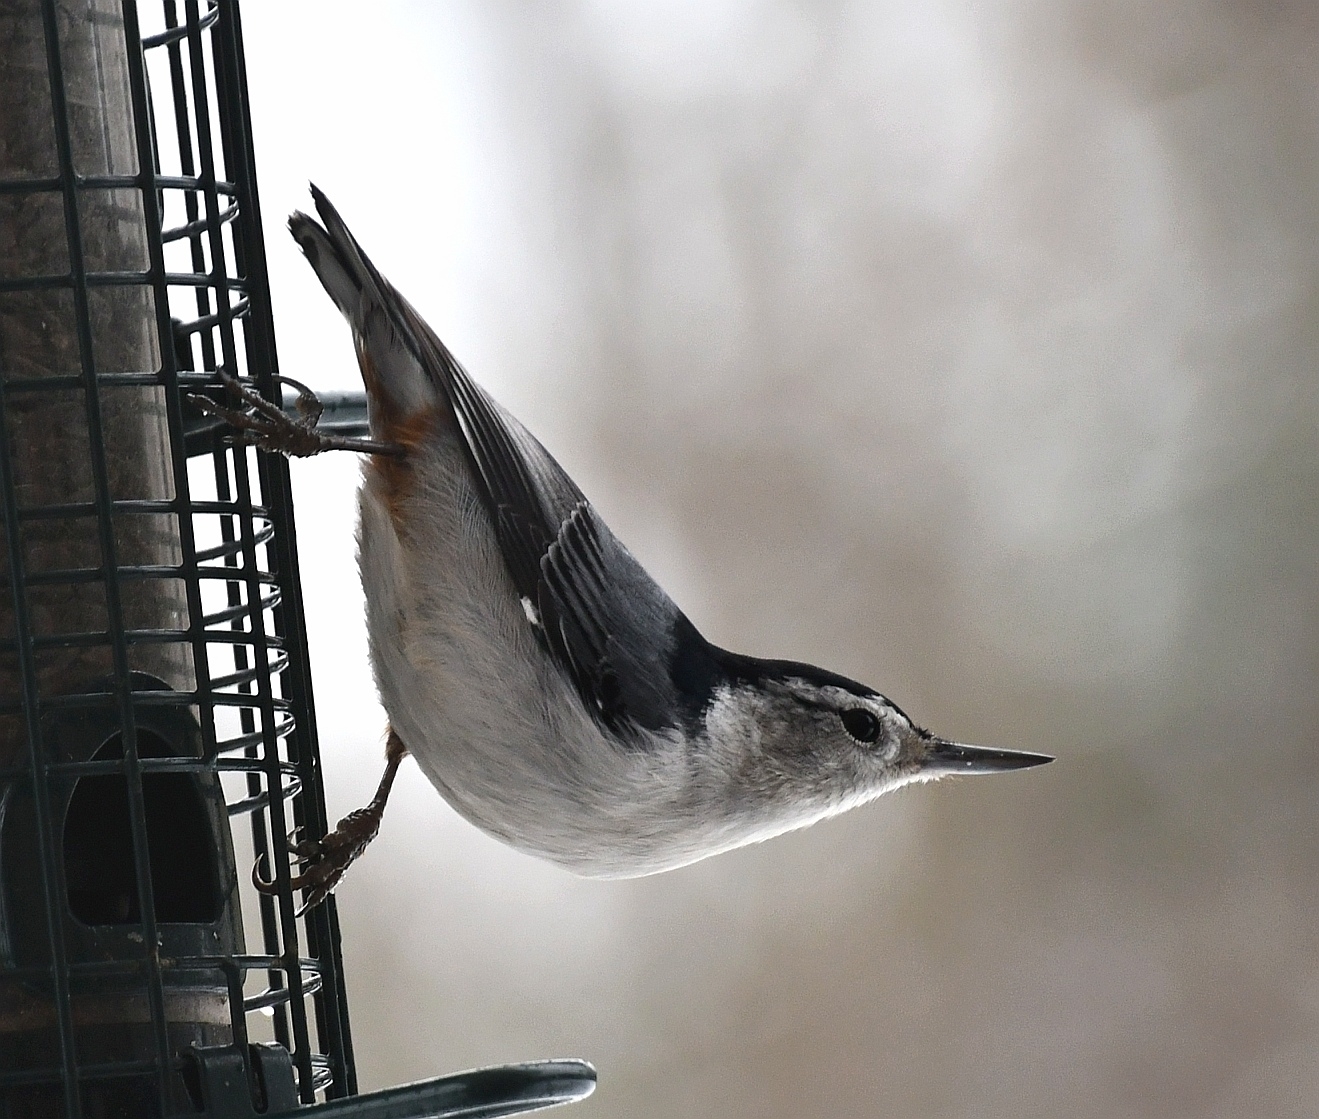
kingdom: Animalia
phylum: Chordata
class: Aves
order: Passeriformes
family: Sittidae
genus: Sitta
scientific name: Sitta carolinensis
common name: White-breasted nuthatch
